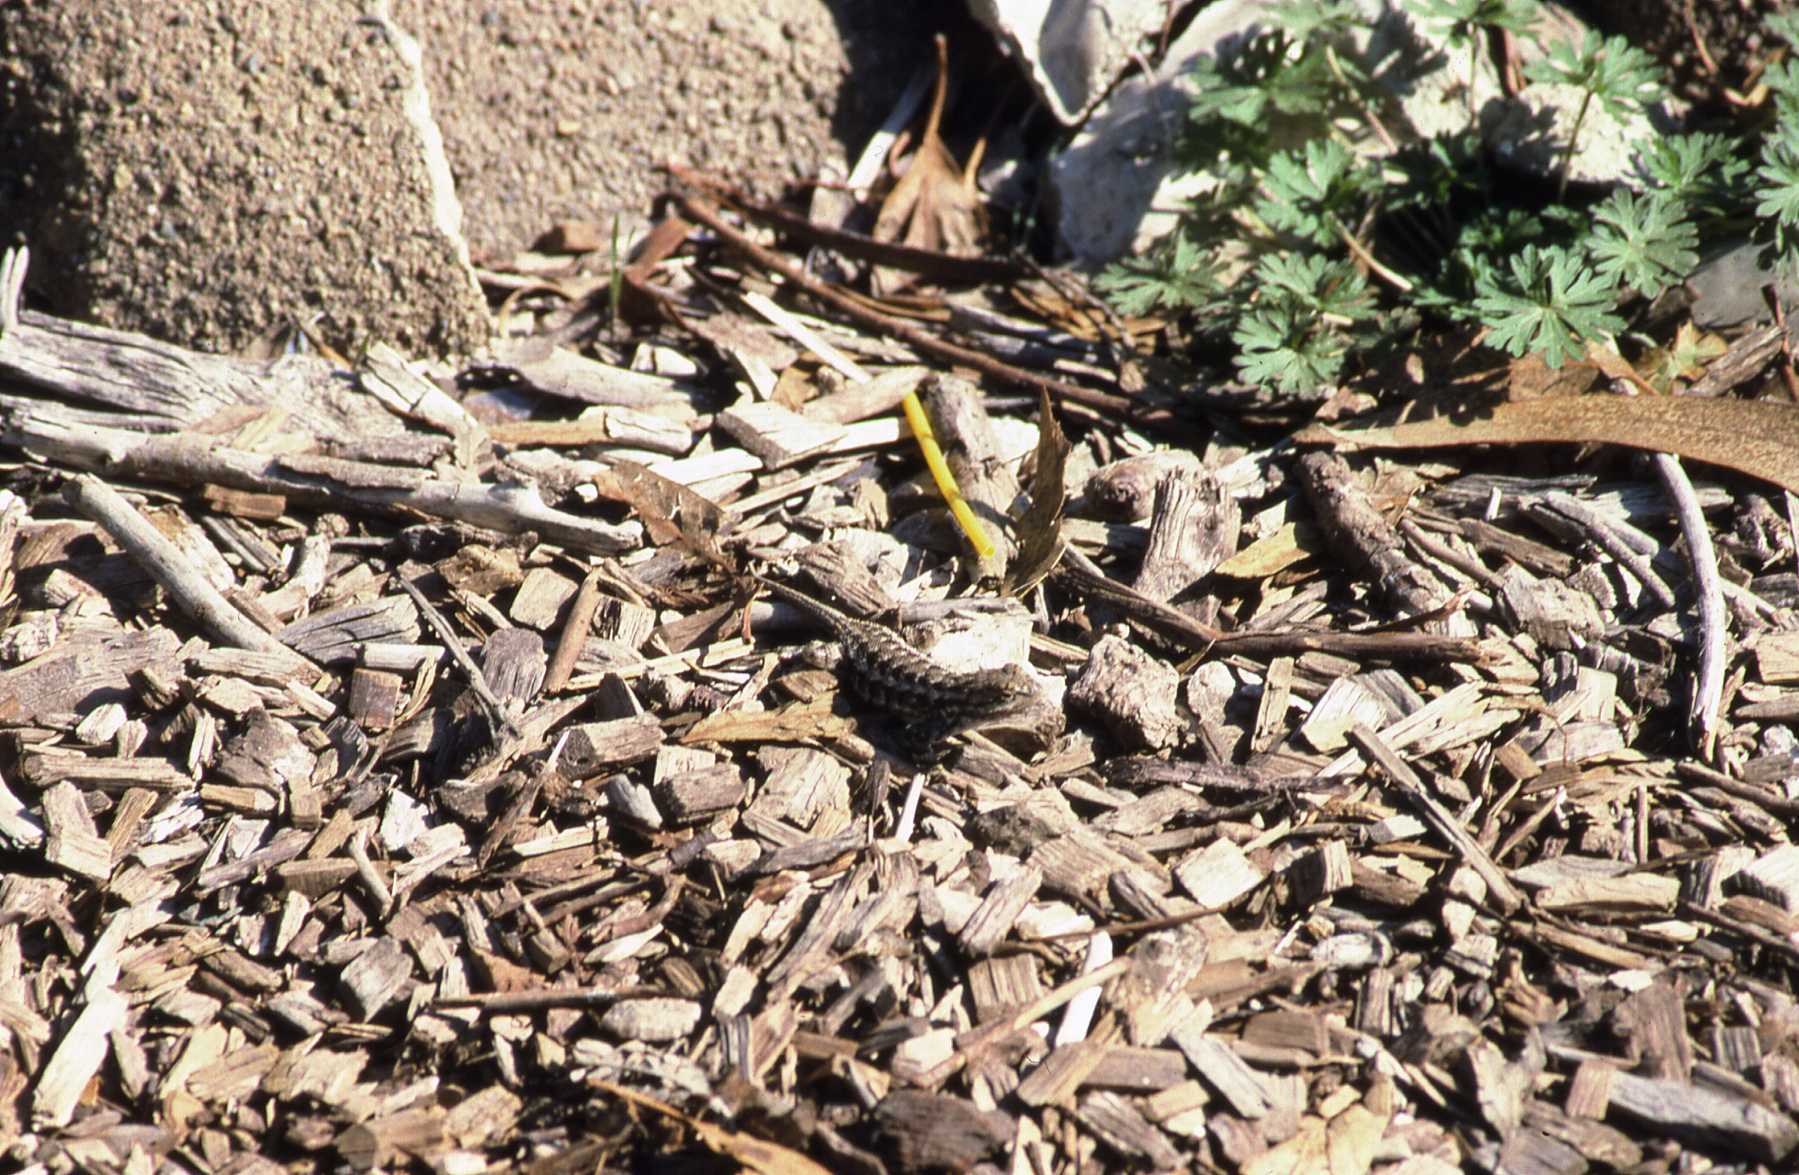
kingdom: Animalia
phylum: Chordata
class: Squamata
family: Phrynosomatidae
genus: Sceloporus
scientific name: Sceloporus occidentalis
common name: Western fence lizard
